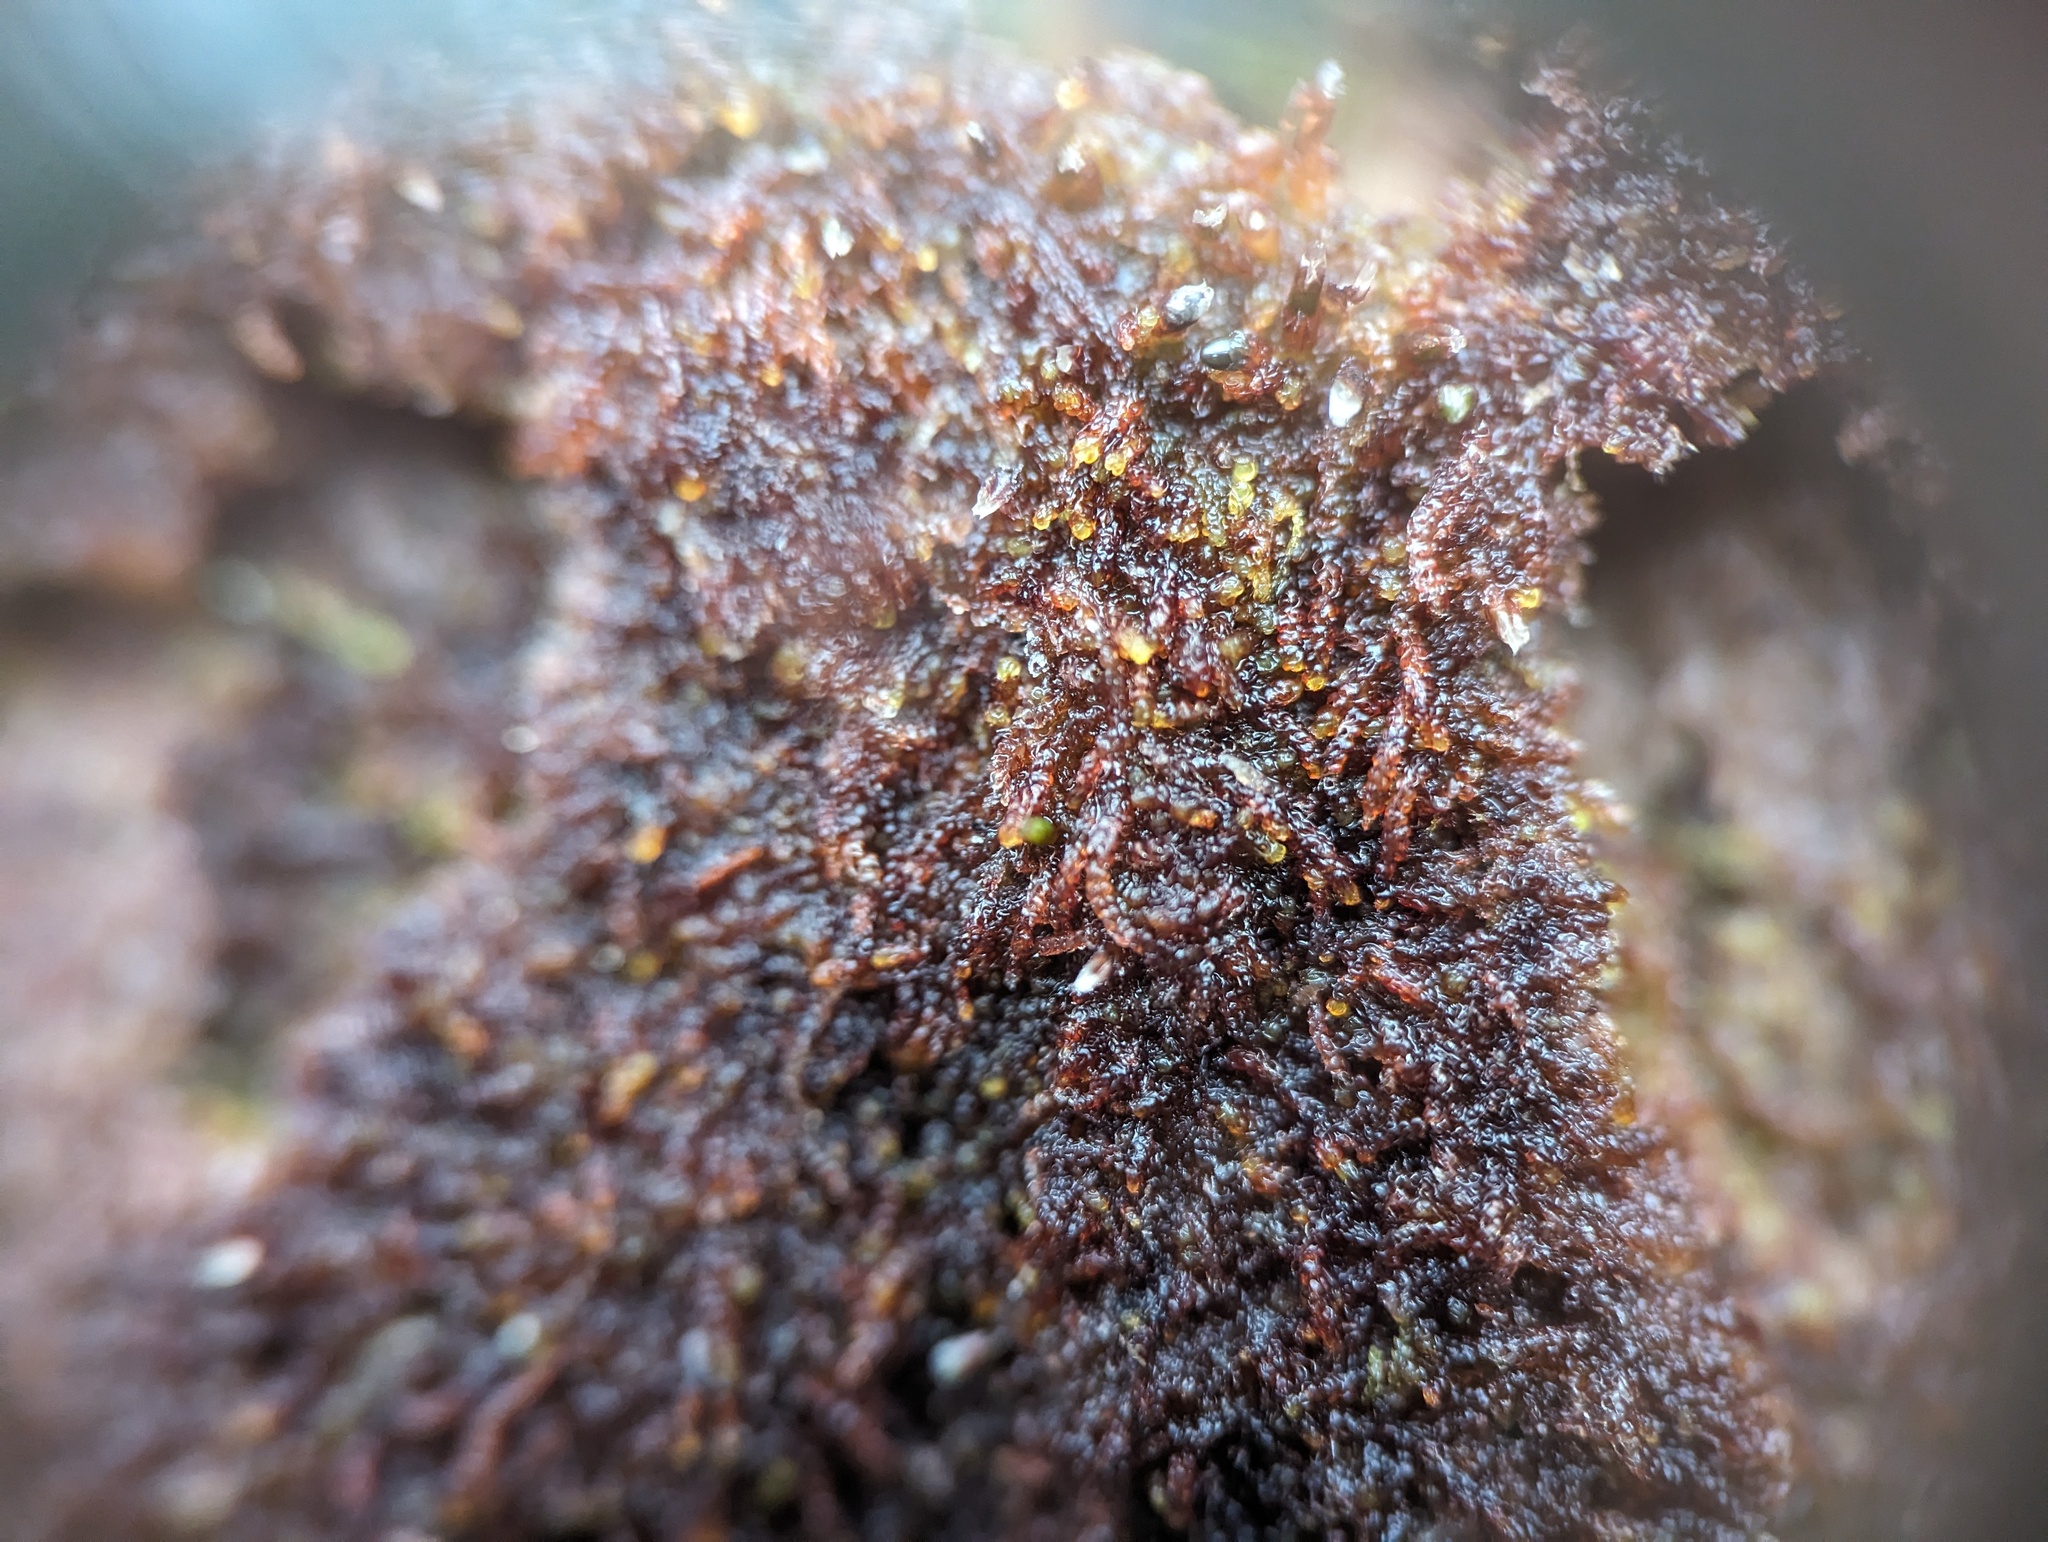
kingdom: Plantae
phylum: Marchantiophyta
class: Jungermanniopsida
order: Jungermanniales
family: Cephaloziaceae
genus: Nowellia
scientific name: Nowellia curvifolia
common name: Wood rustwort
